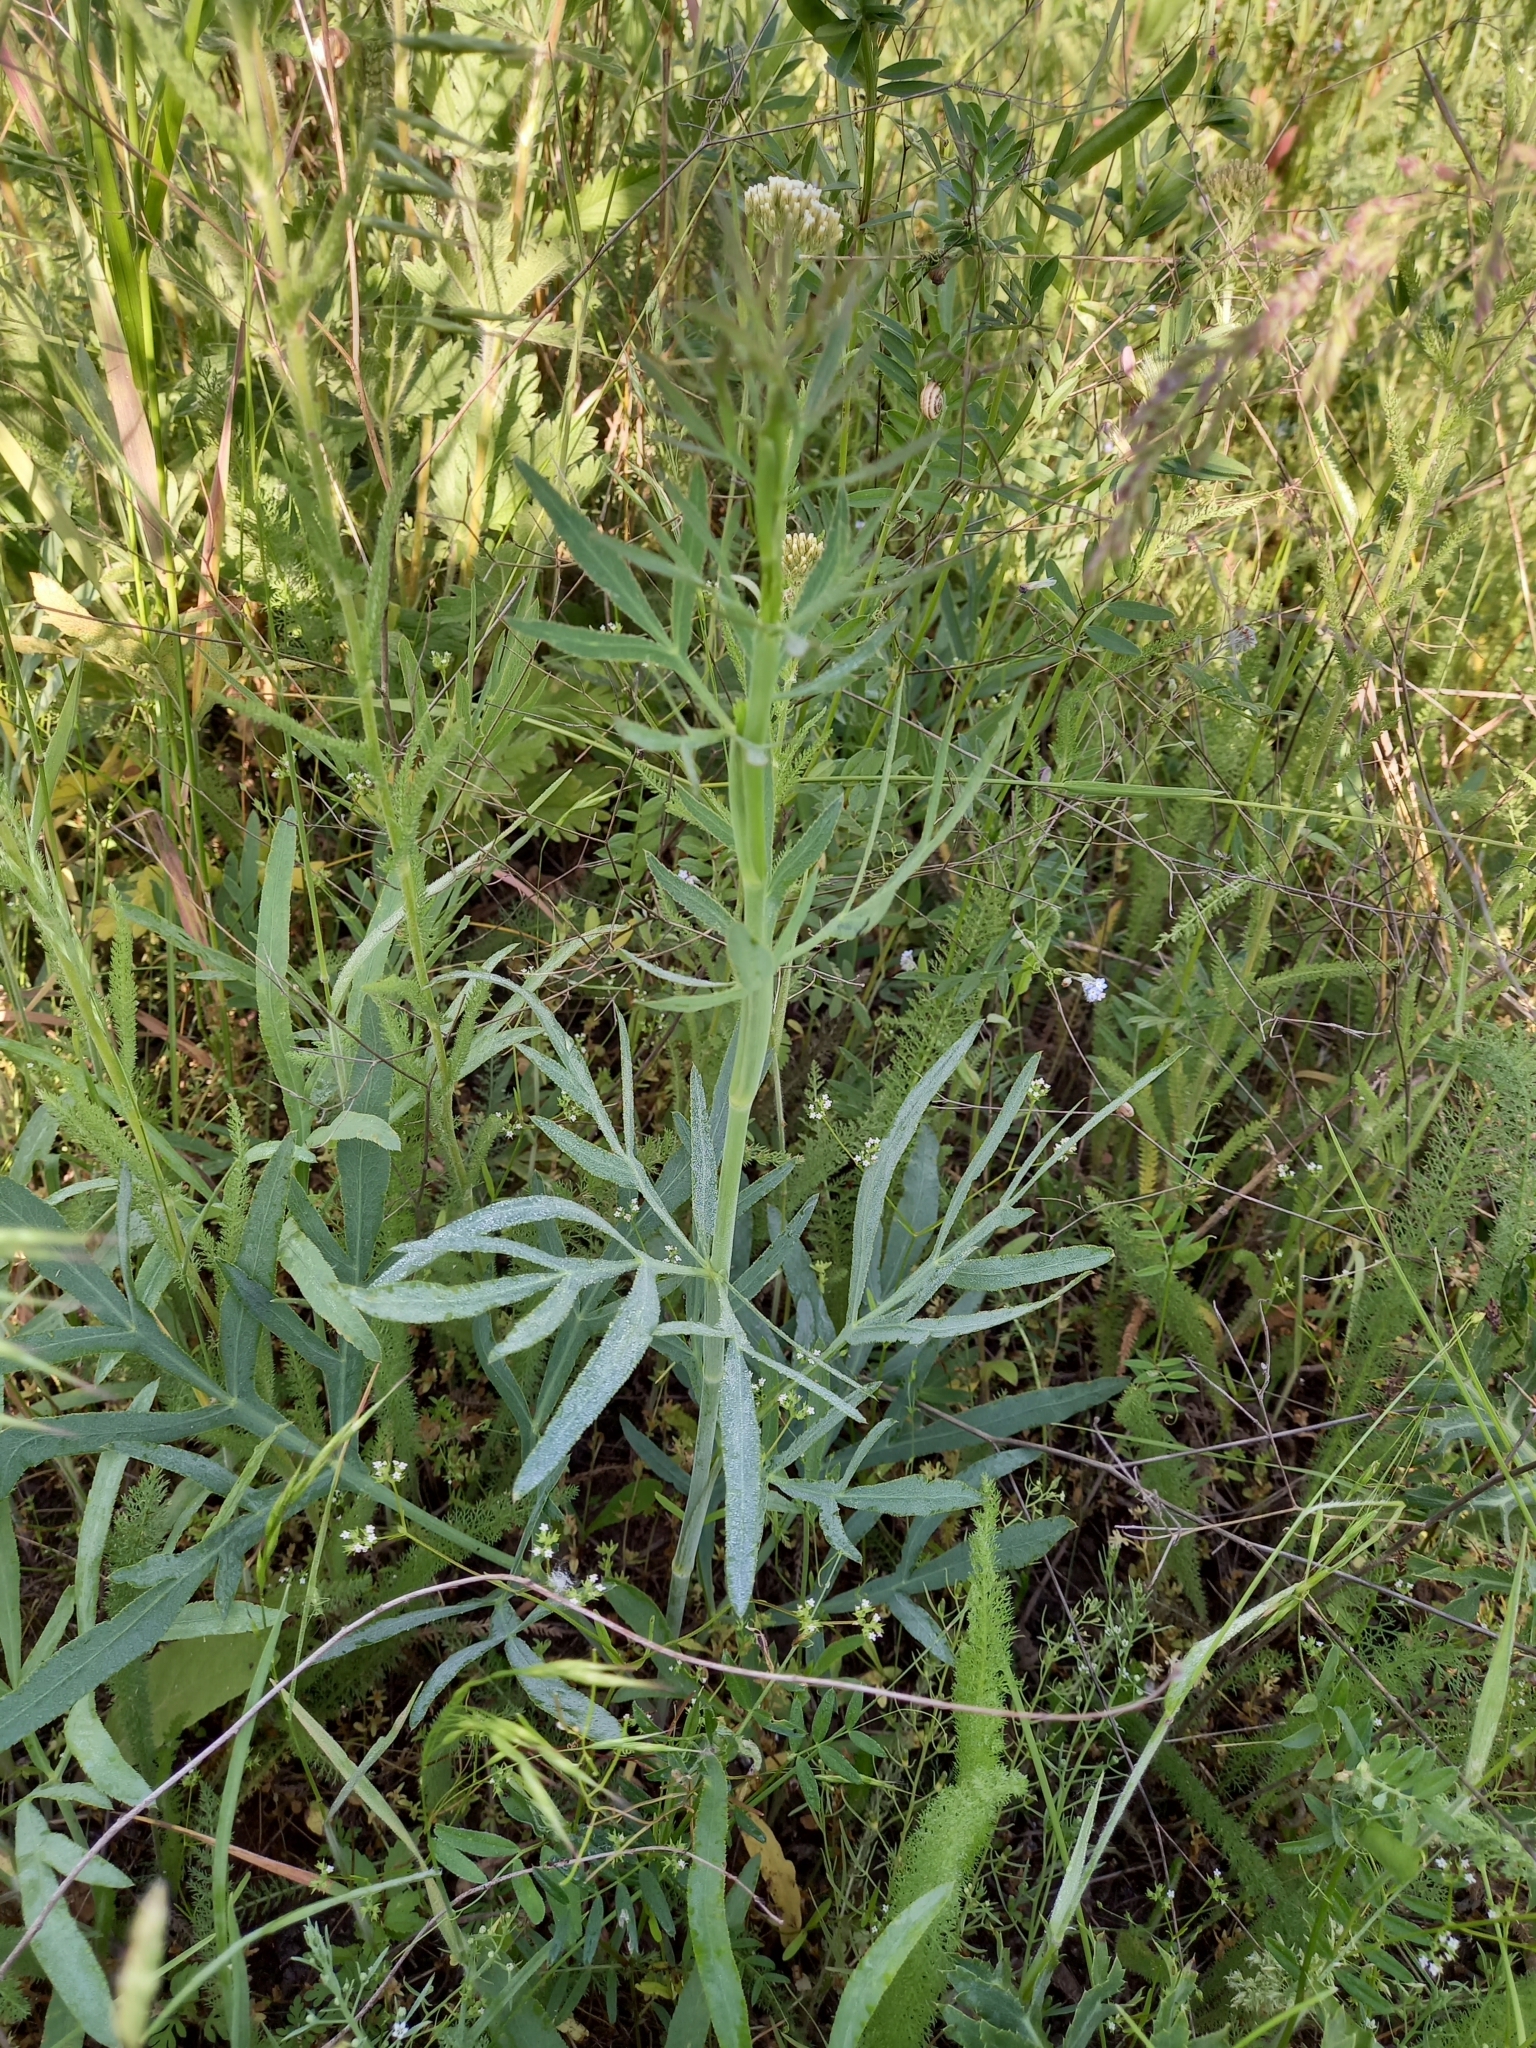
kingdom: Plantae
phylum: Tracheophyta
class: Magnoliopsida
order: Apiales
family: Apiaceae
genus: Falcaria
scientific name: Falcaria vulgaris
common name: Longleaf
